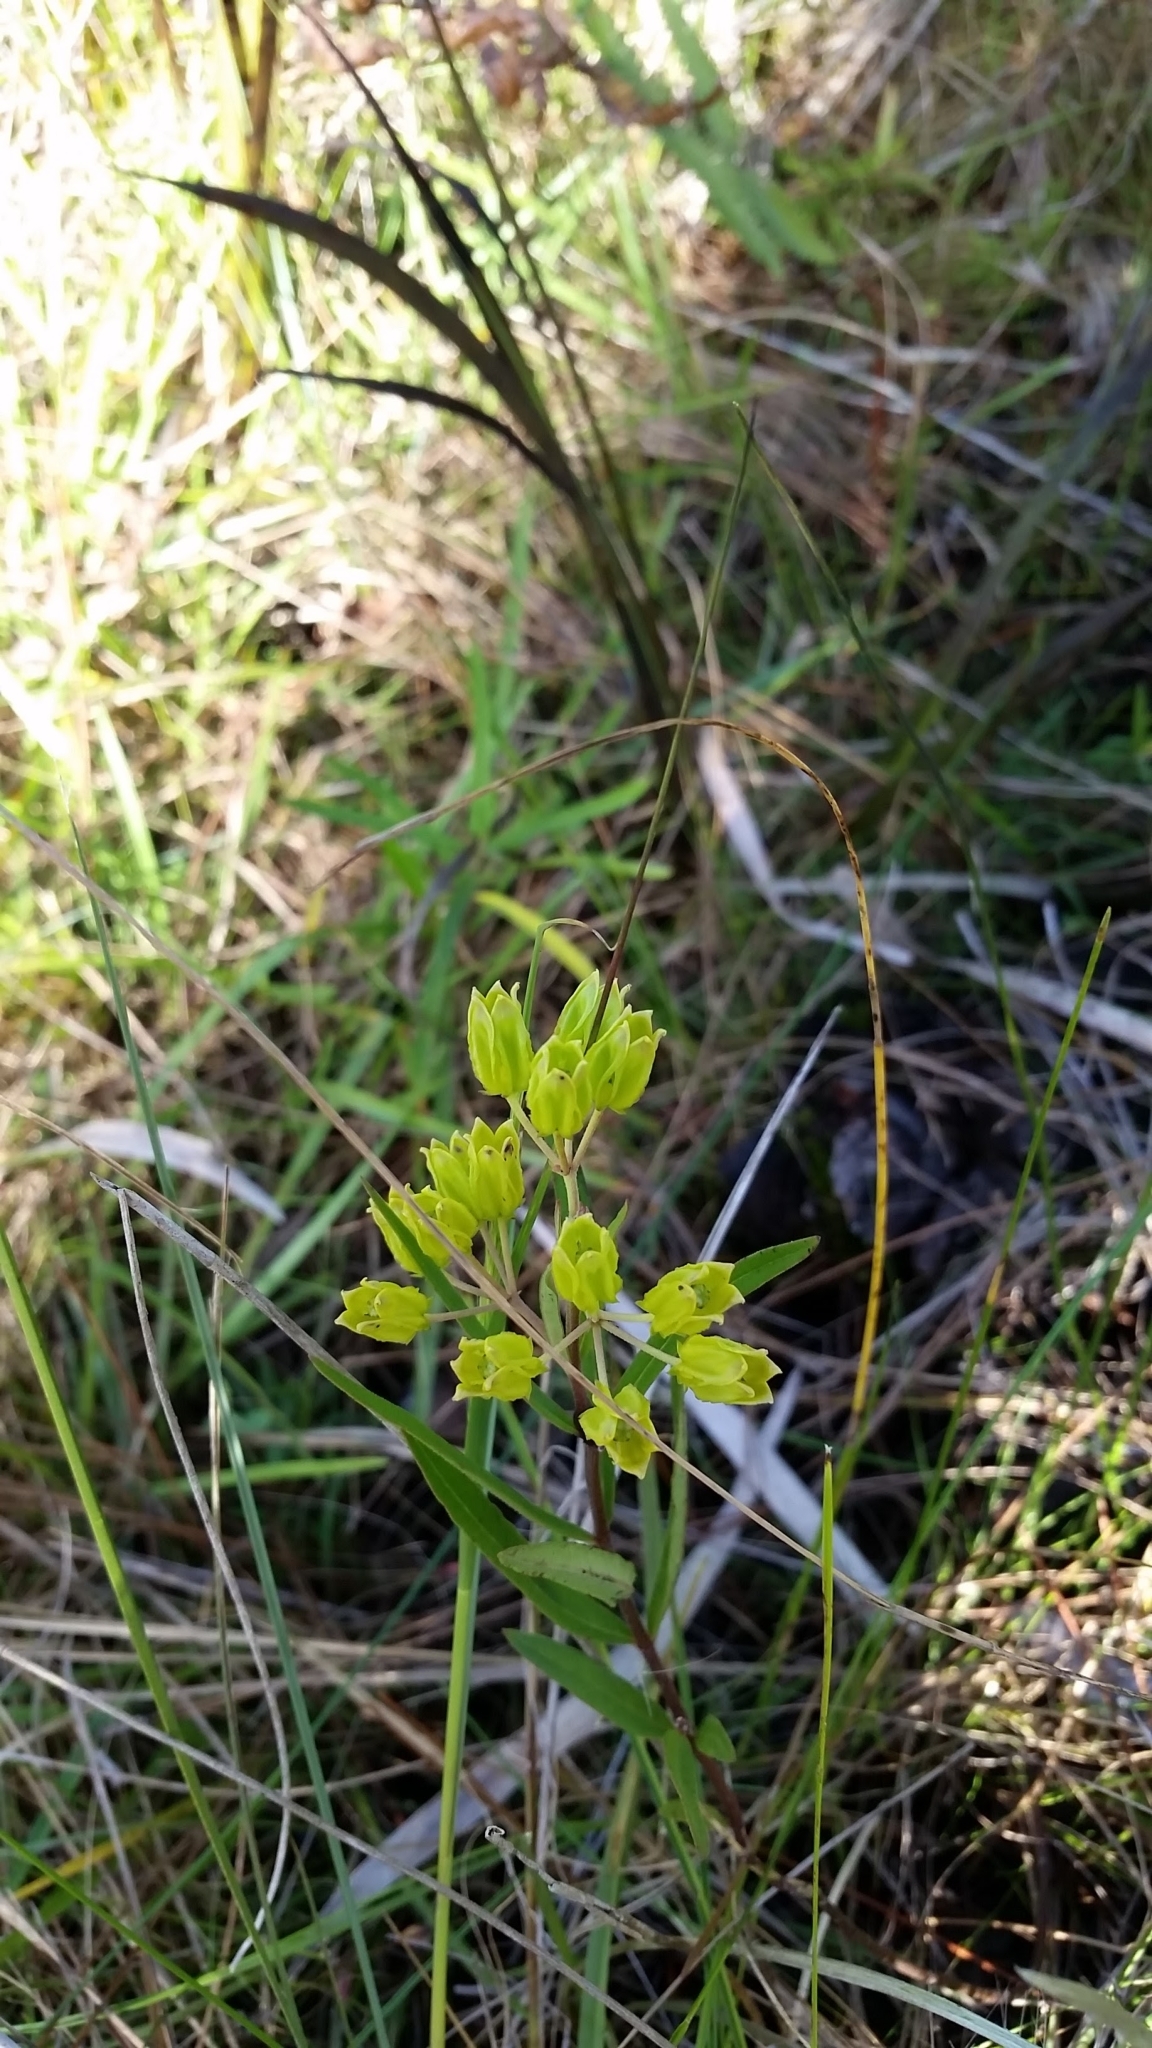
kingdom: Plantae
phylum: Tracheophyta
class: Magnoliopsida
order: Gentianales
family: Apocynaceae
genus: Asclepias
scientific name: Asclepias pedicellata
